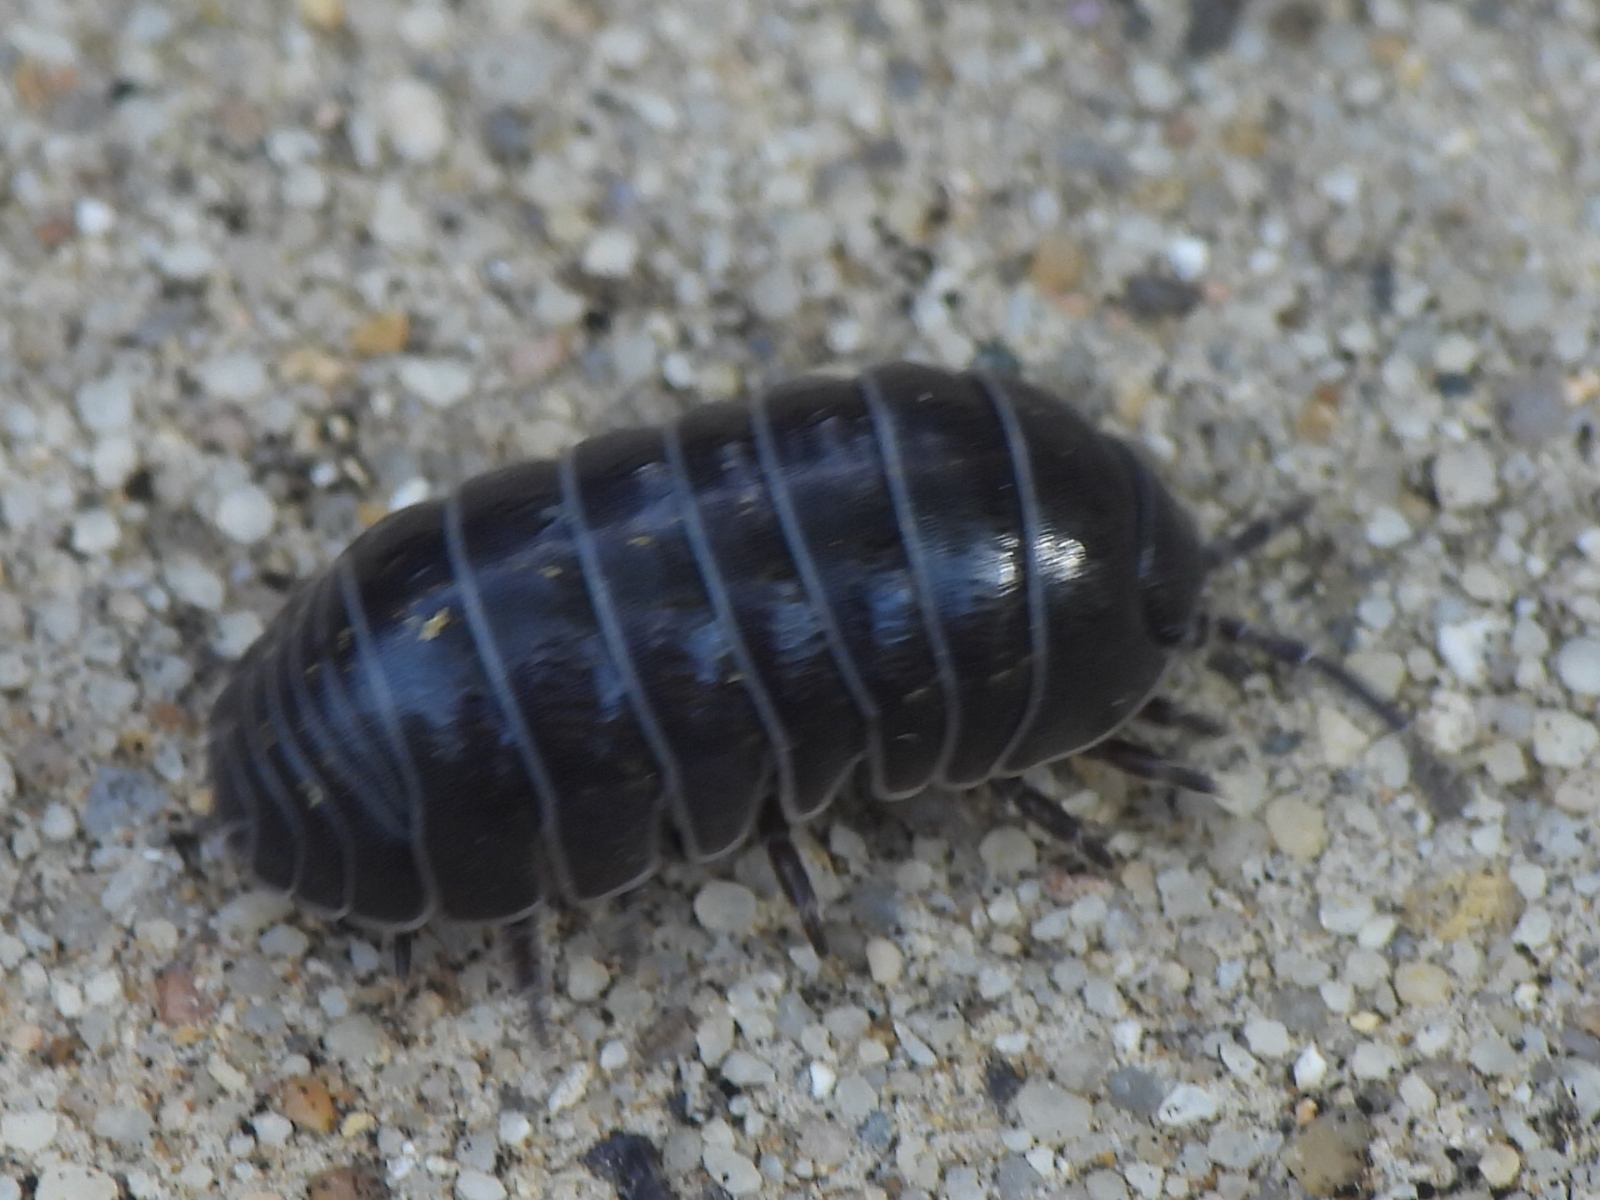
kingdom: Animalia
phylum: Arthropoda
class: Malacostraca
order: Isopoda
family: Armadillidiidae
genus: Armadillidium
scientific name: Armadillidium vulgare
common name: Common pill woodlouse
